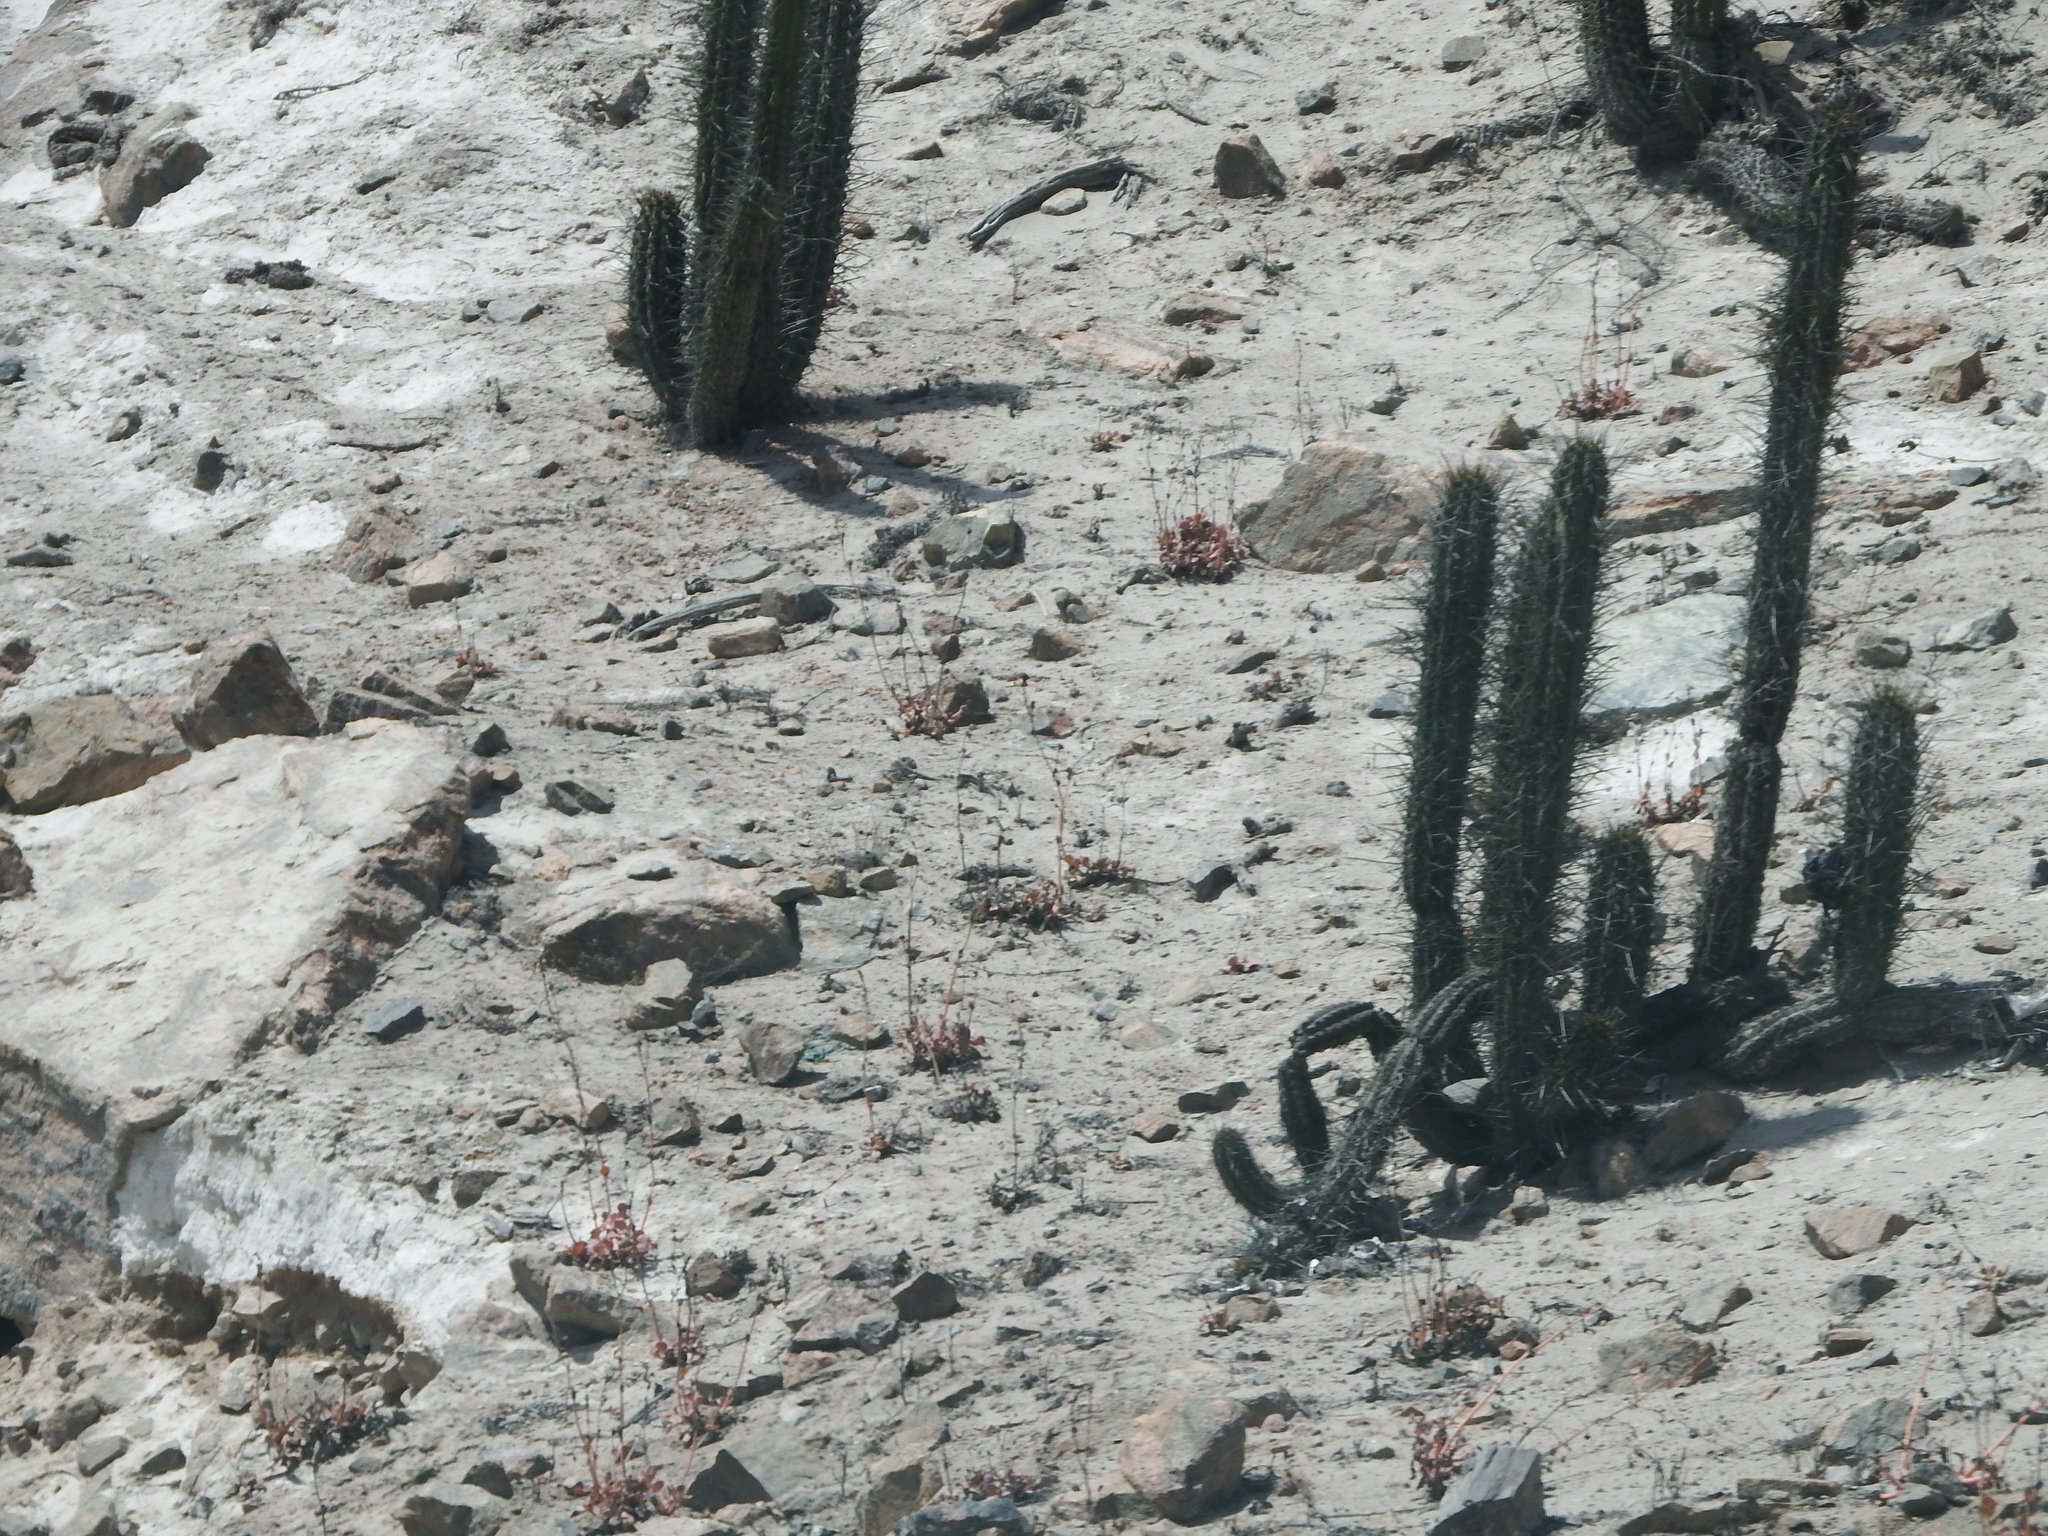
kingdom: Plantae
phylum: Tracheophyta
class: Magnoliopsida
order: Caryophyllales
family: Cactaceae
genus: Weberbauerocereus
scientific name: Weberbauerocereus cephalomacrostibas
